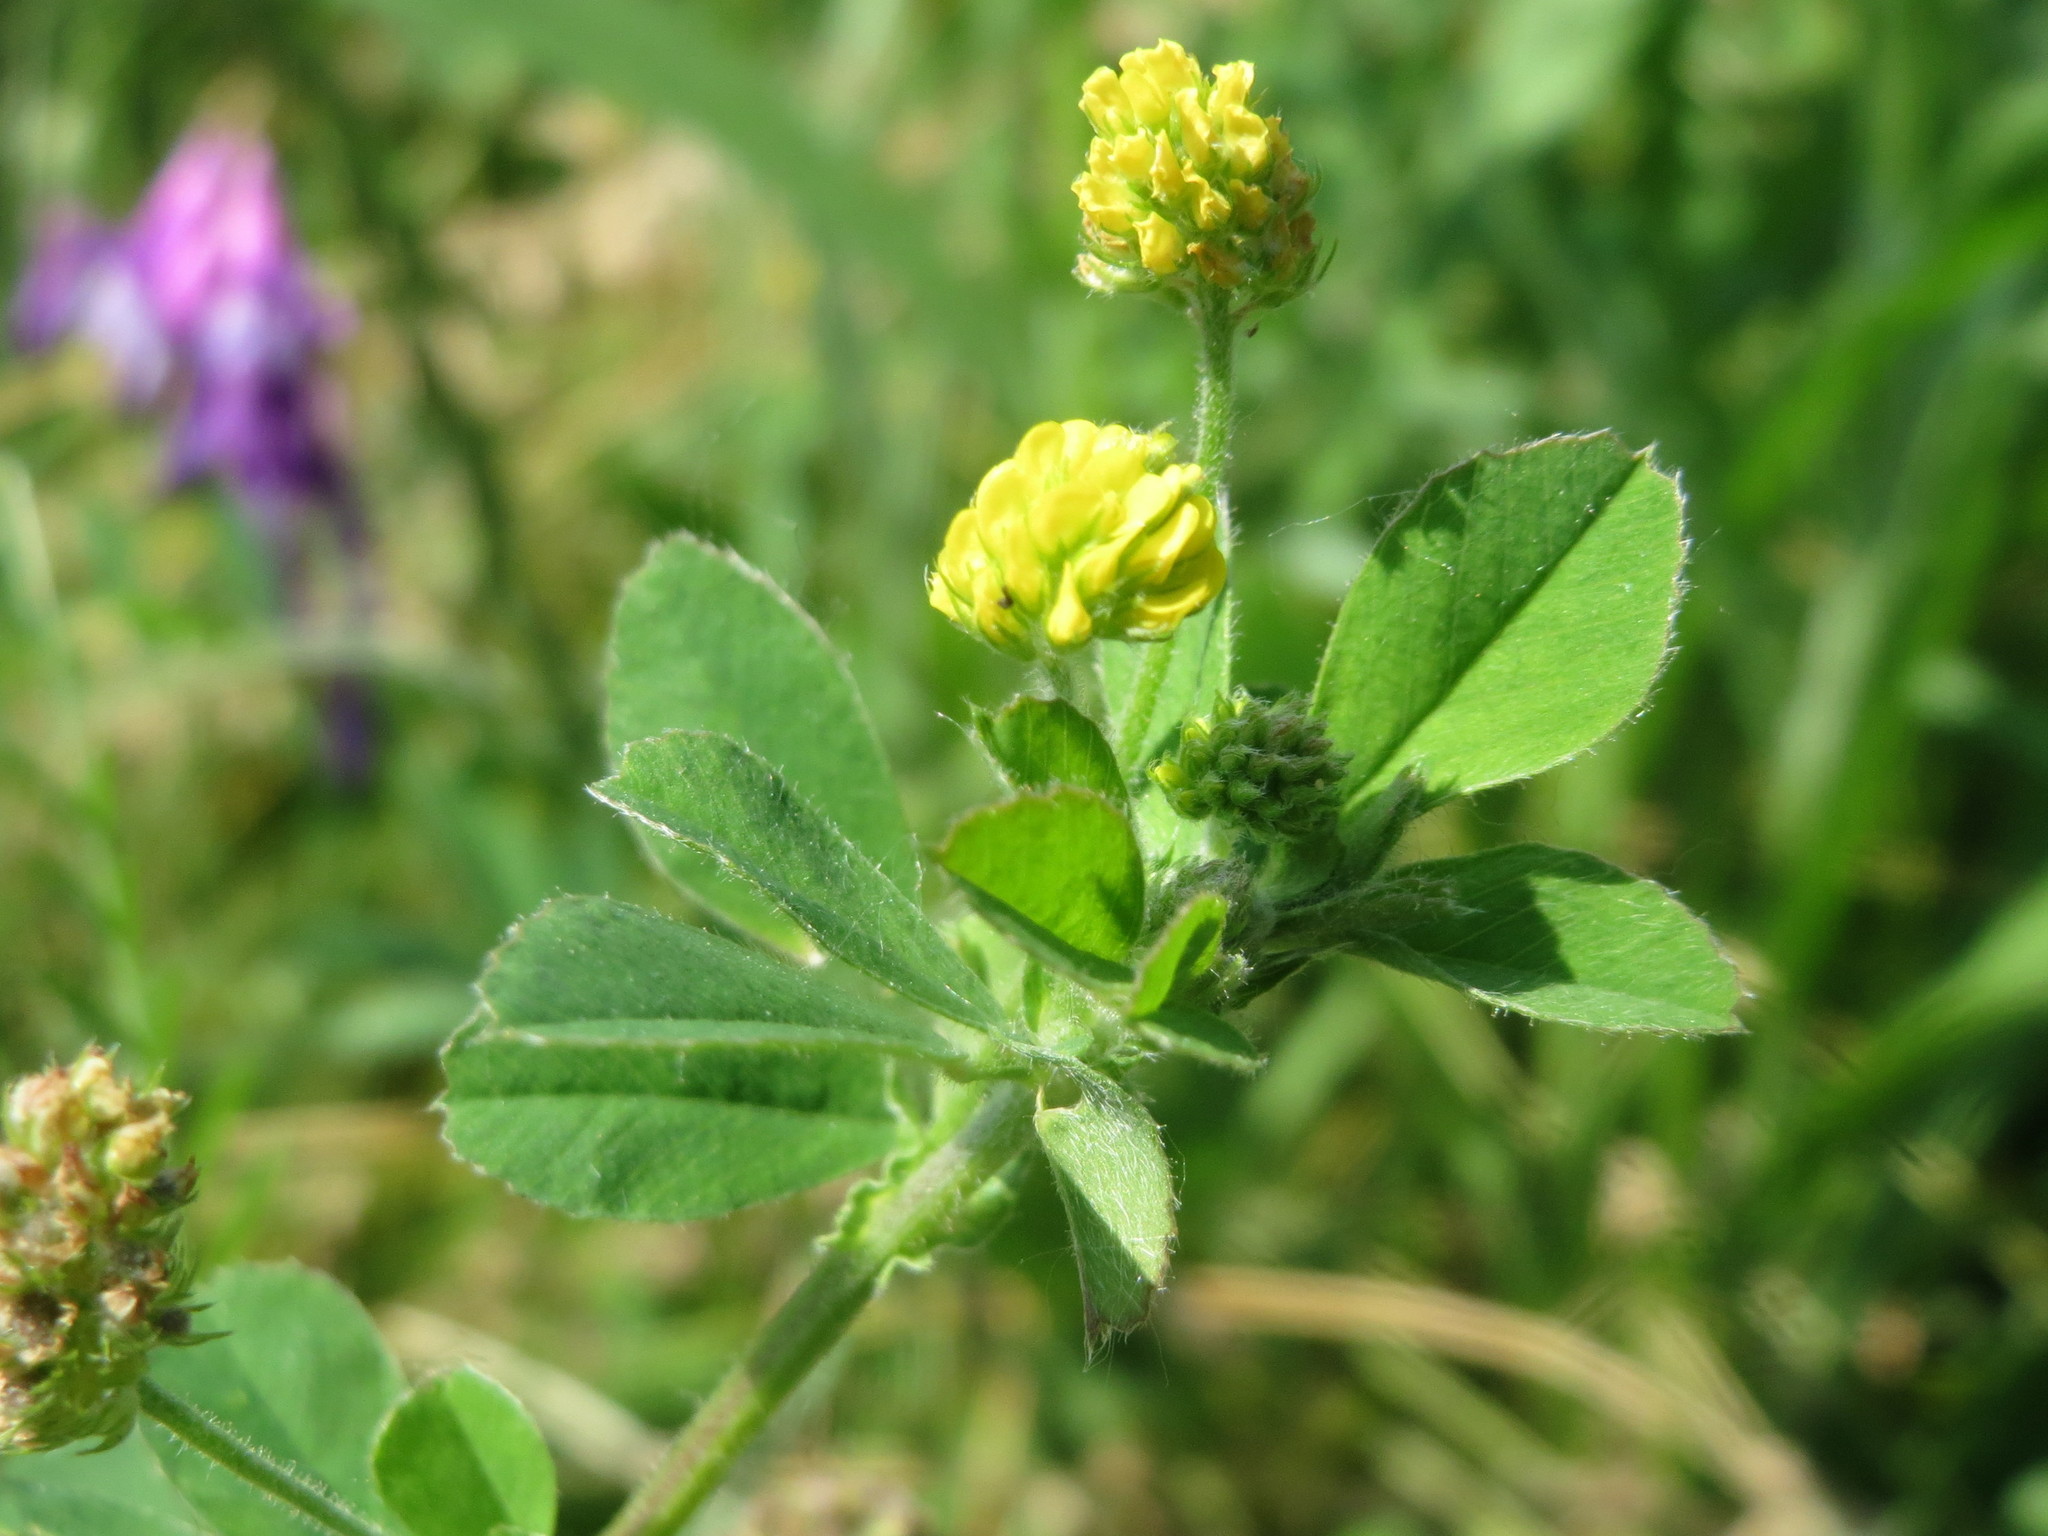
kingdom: Plantae
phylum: Tracheophyta
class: Magnoliopsida
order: Fabales
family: Fabaceae
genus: Medicago
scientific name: Medicago lupulina
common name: Black medick
